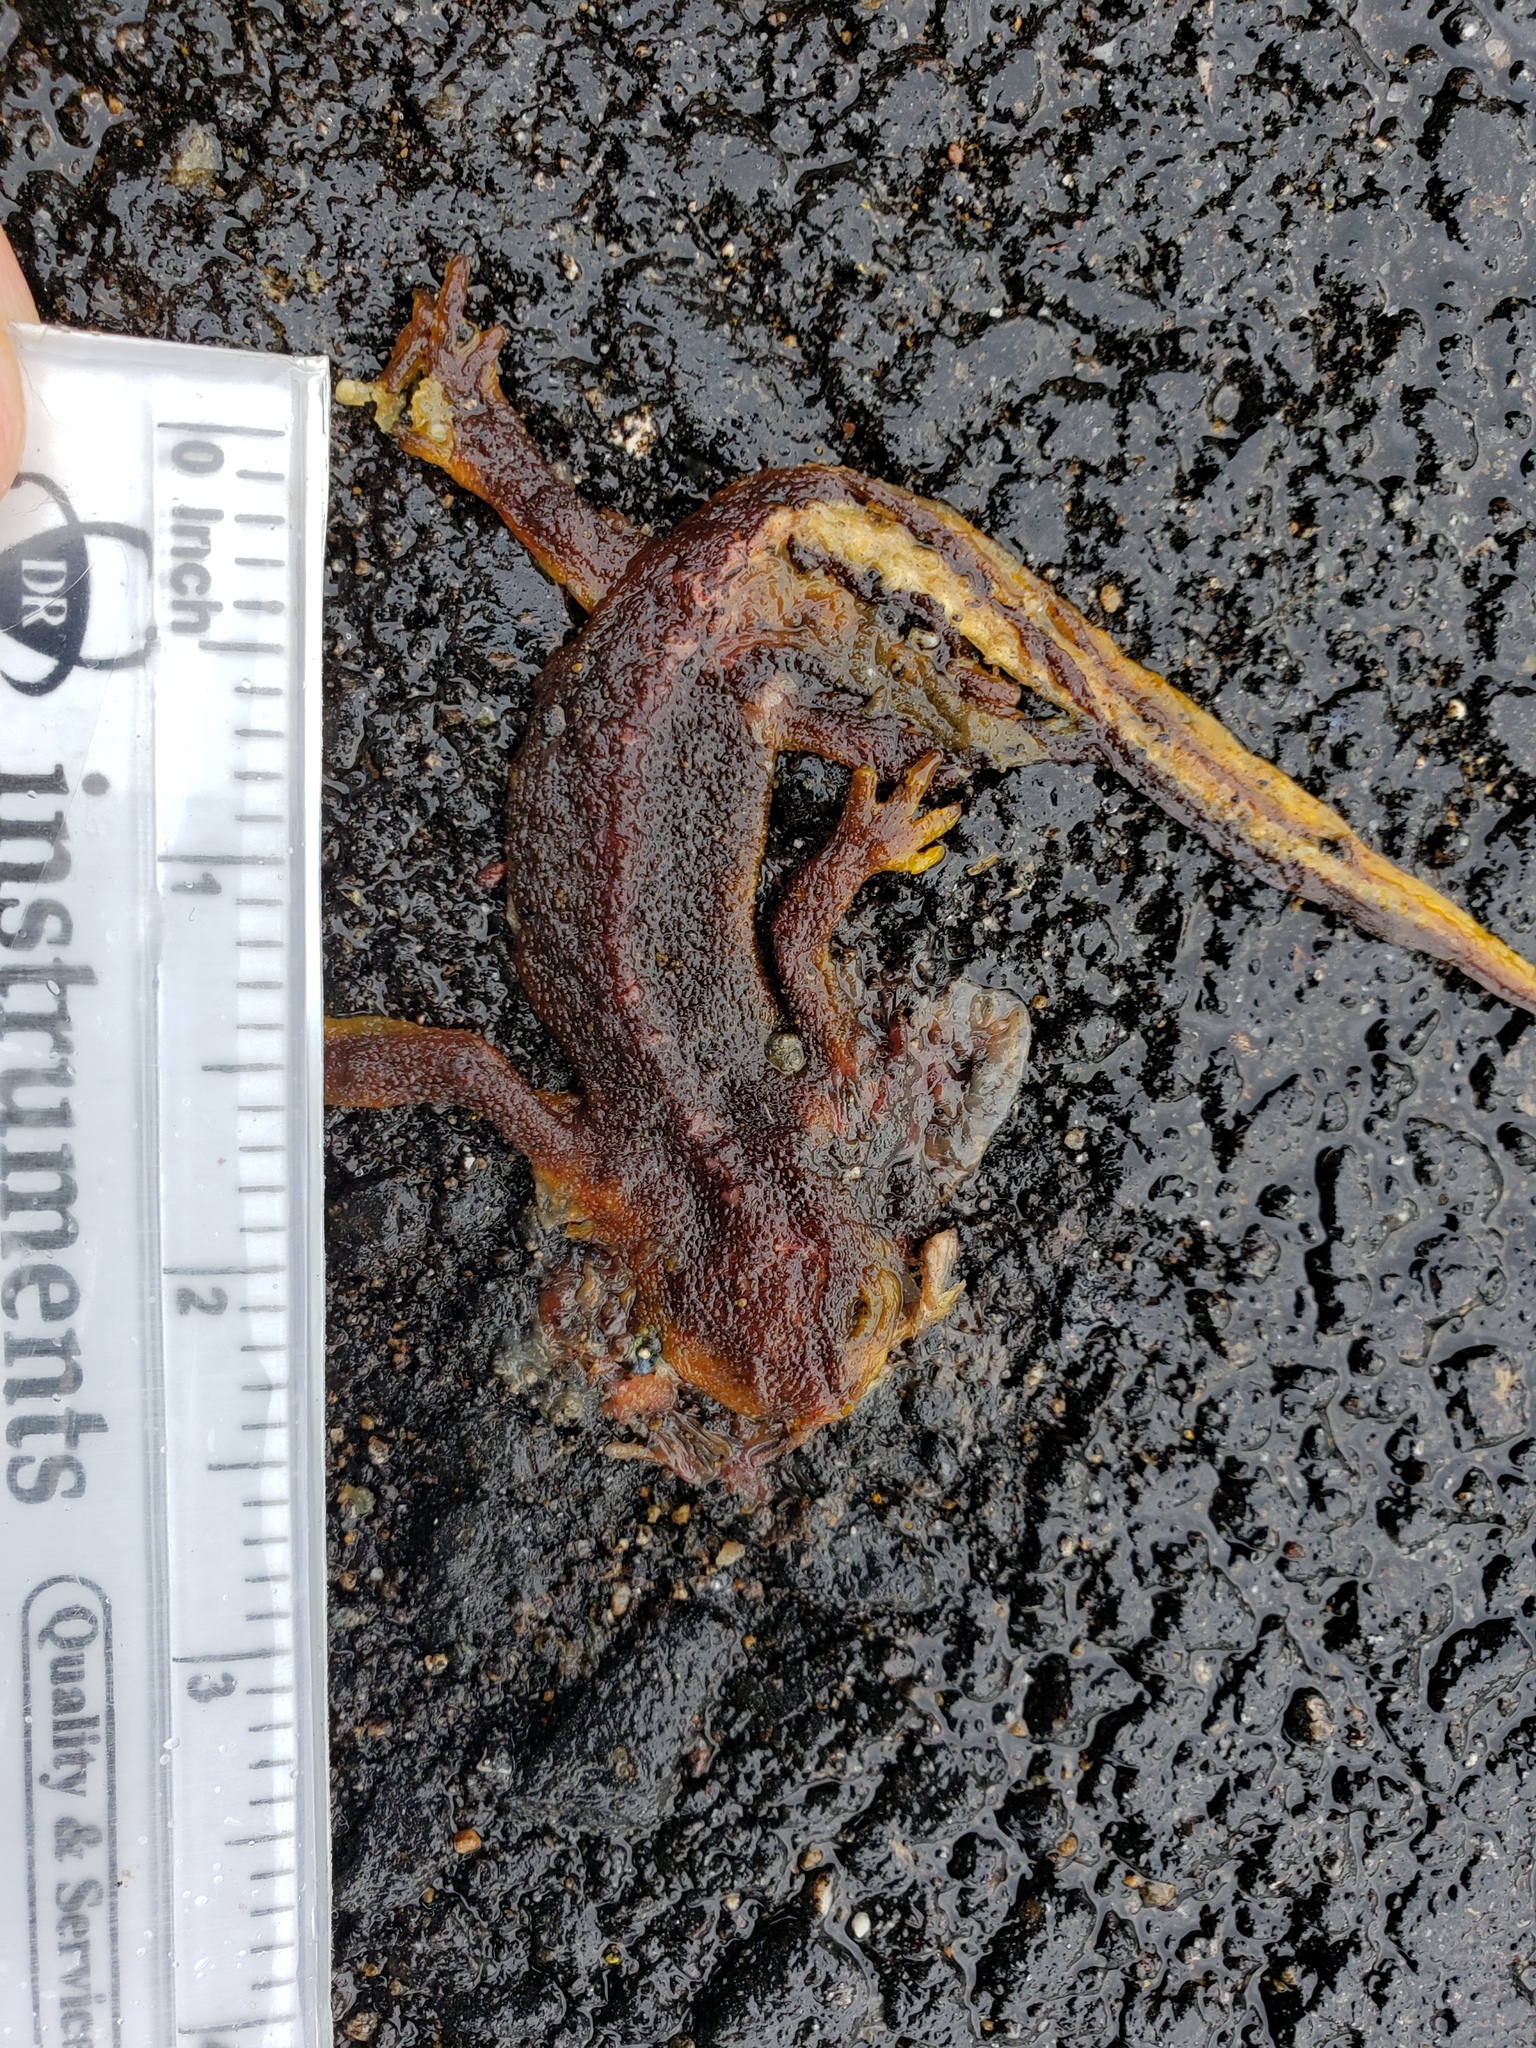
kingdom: Animalia
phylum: Chordata
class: Amphibia
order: Caudata
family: Salamandridae
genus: Taricha
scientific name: Taricha
